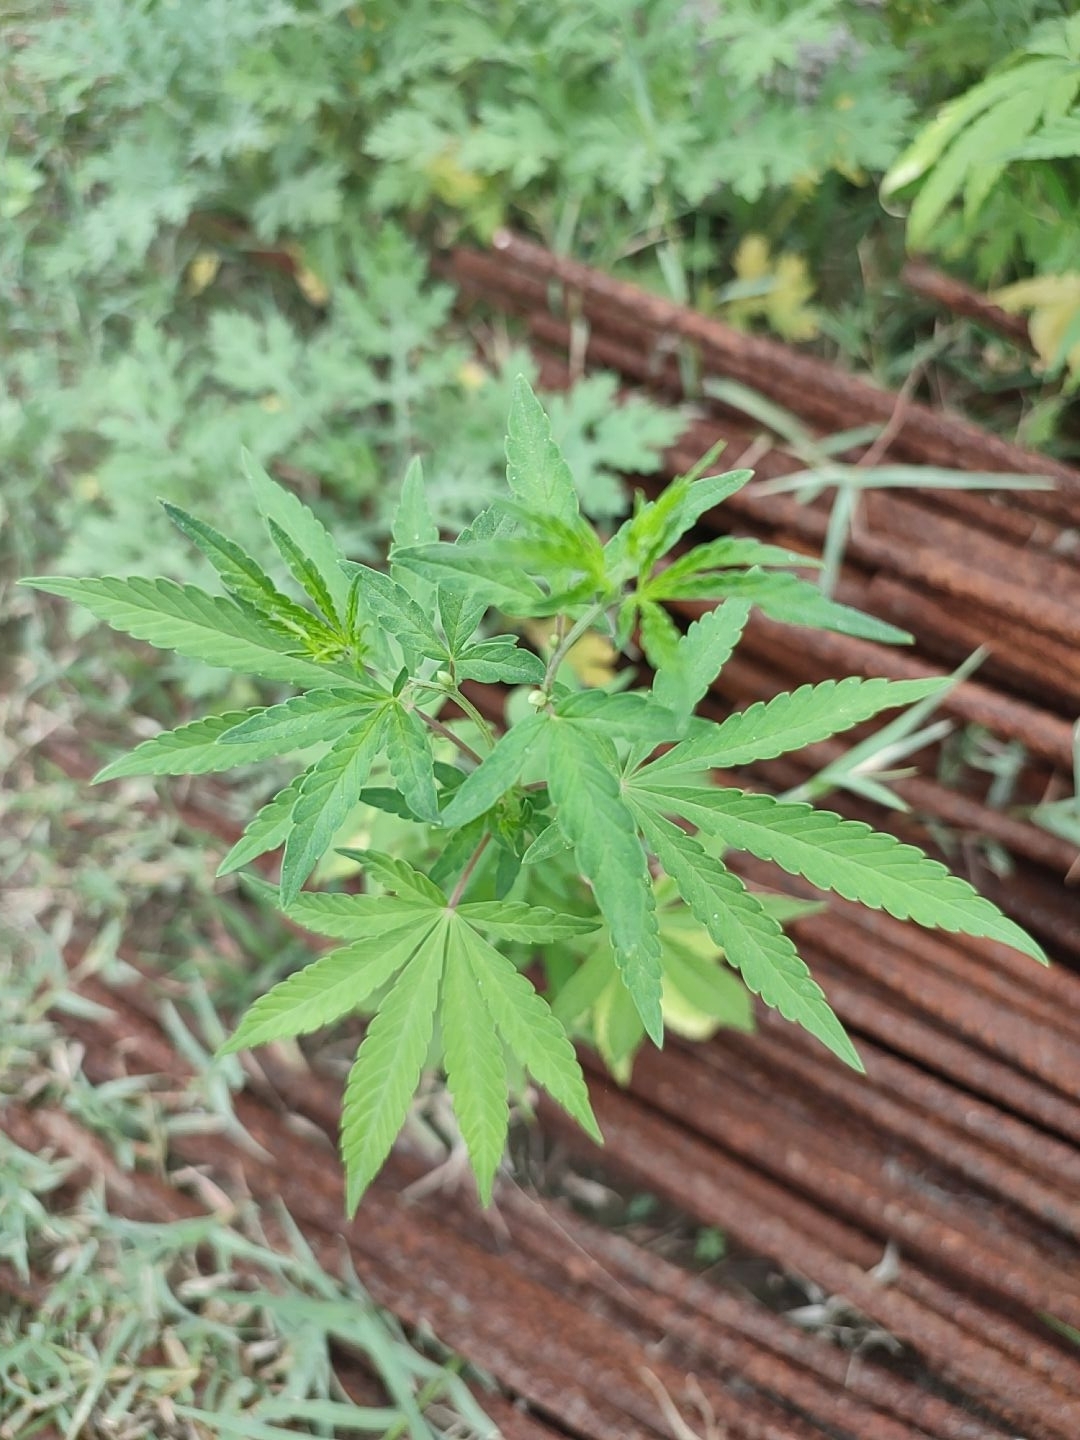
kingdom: Plantae
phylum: Tracheophyta
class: Magnoliopsida
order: Rosales
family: Cannabaceae
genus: Cannabis
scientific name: Cannabis sativa
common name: Hemp
